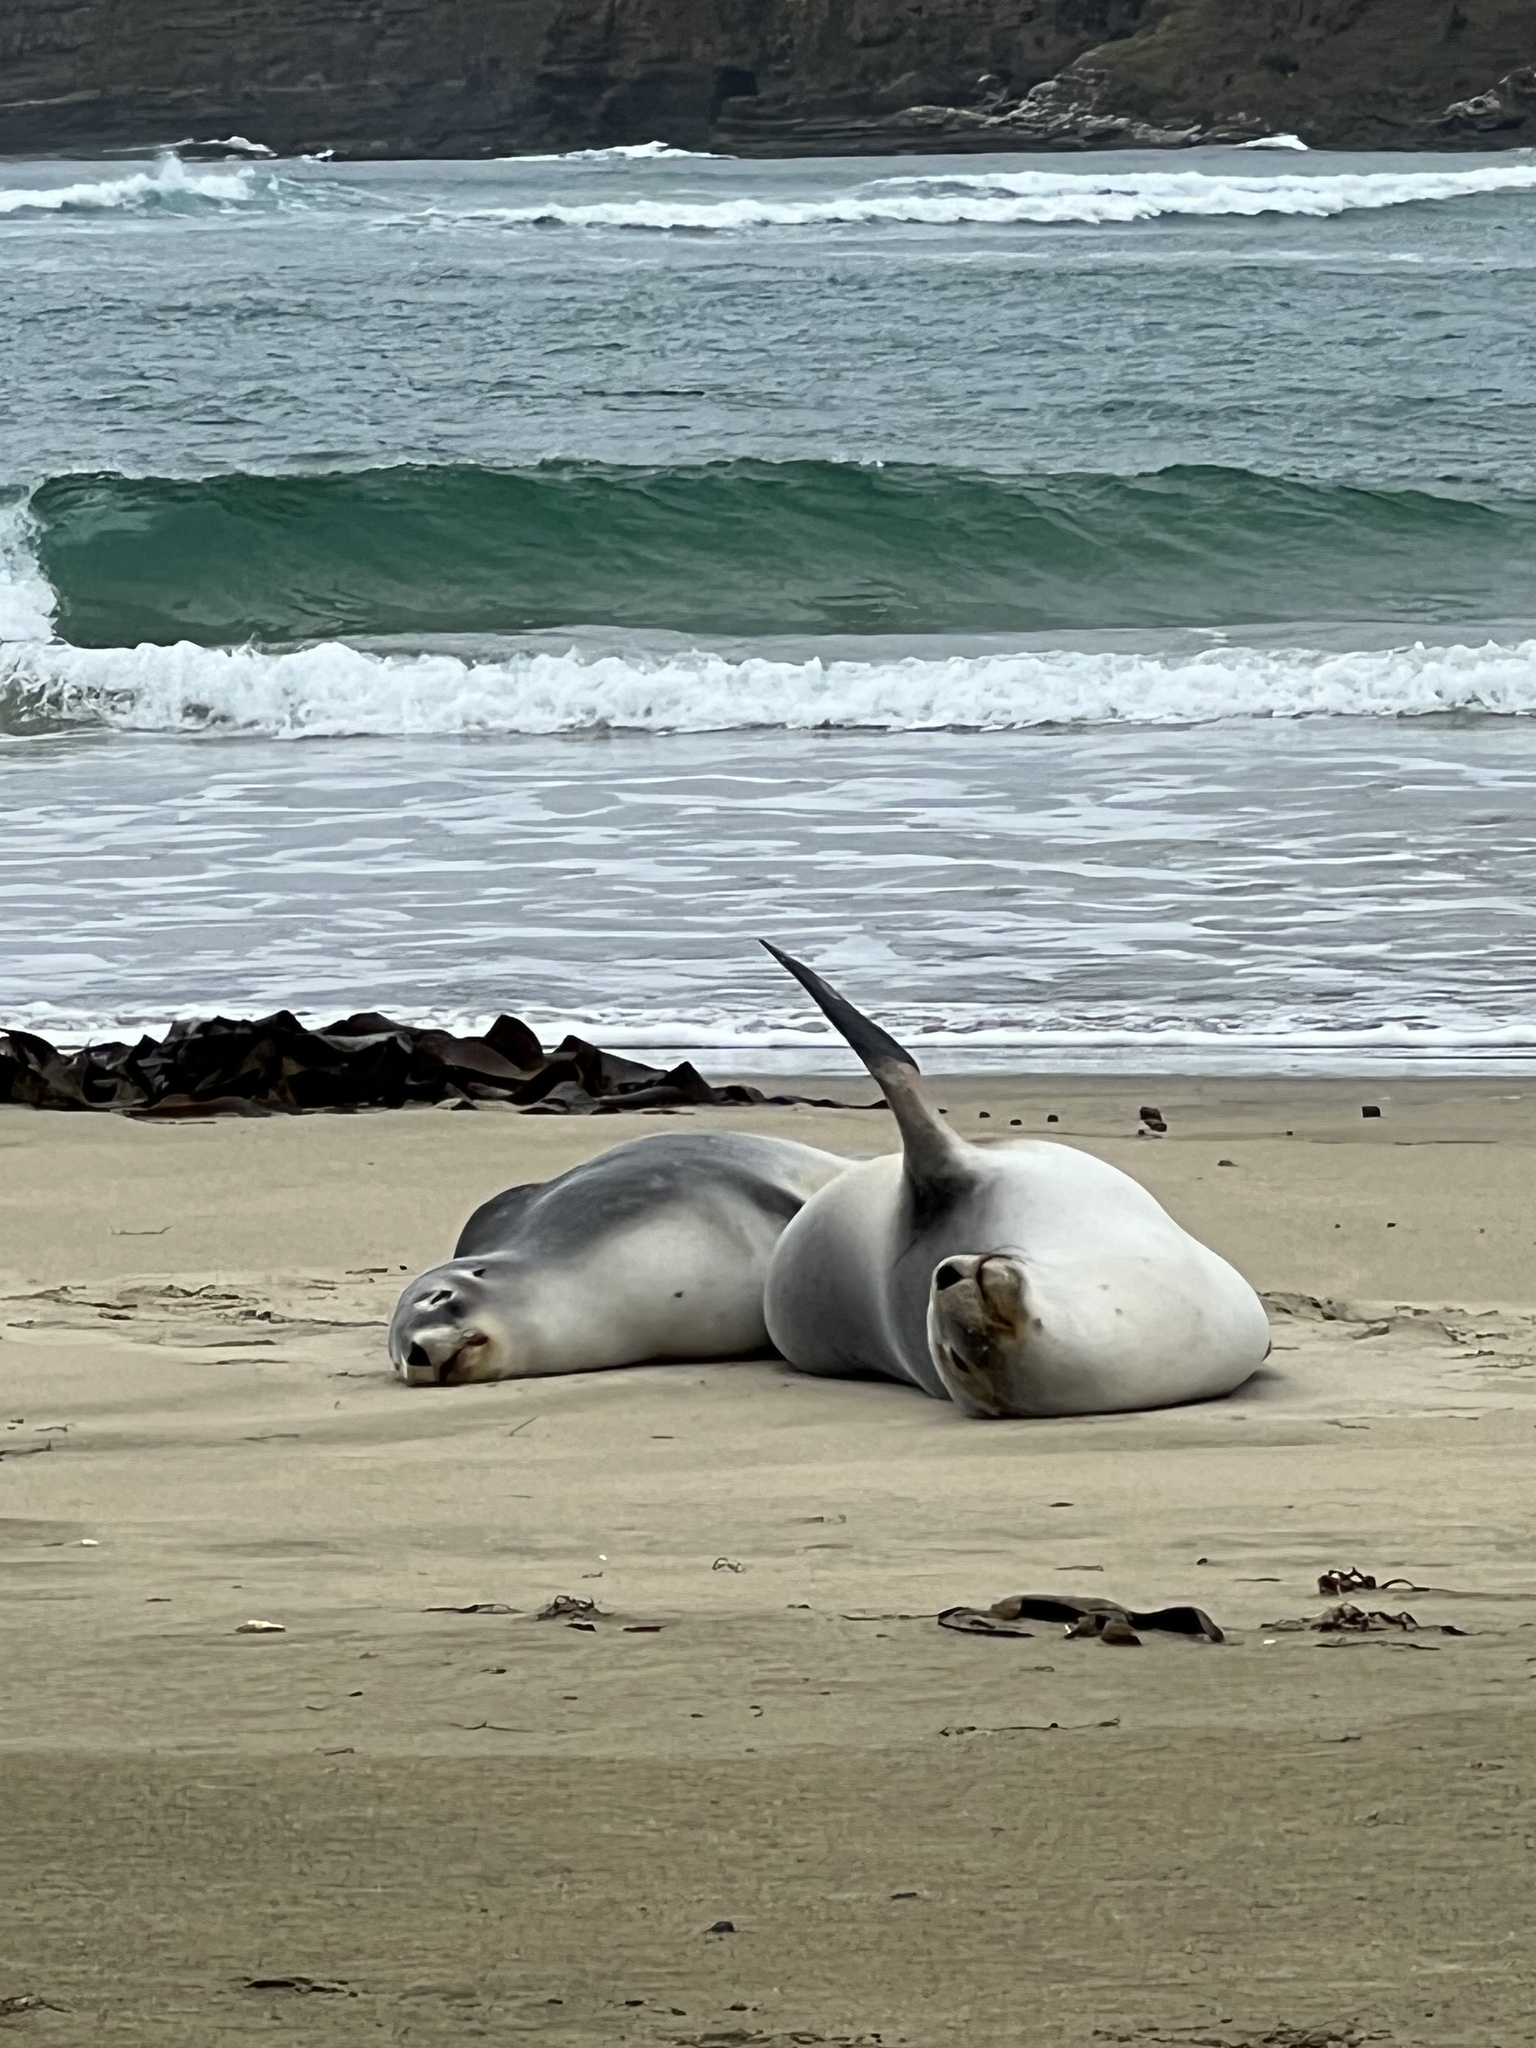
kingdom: Animalia
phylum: Chordata
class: Mammalia
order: Carnivora
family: Otariidae
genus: Phocarctos
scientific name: Phocarctos hookeri
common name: New zealand sea lion
